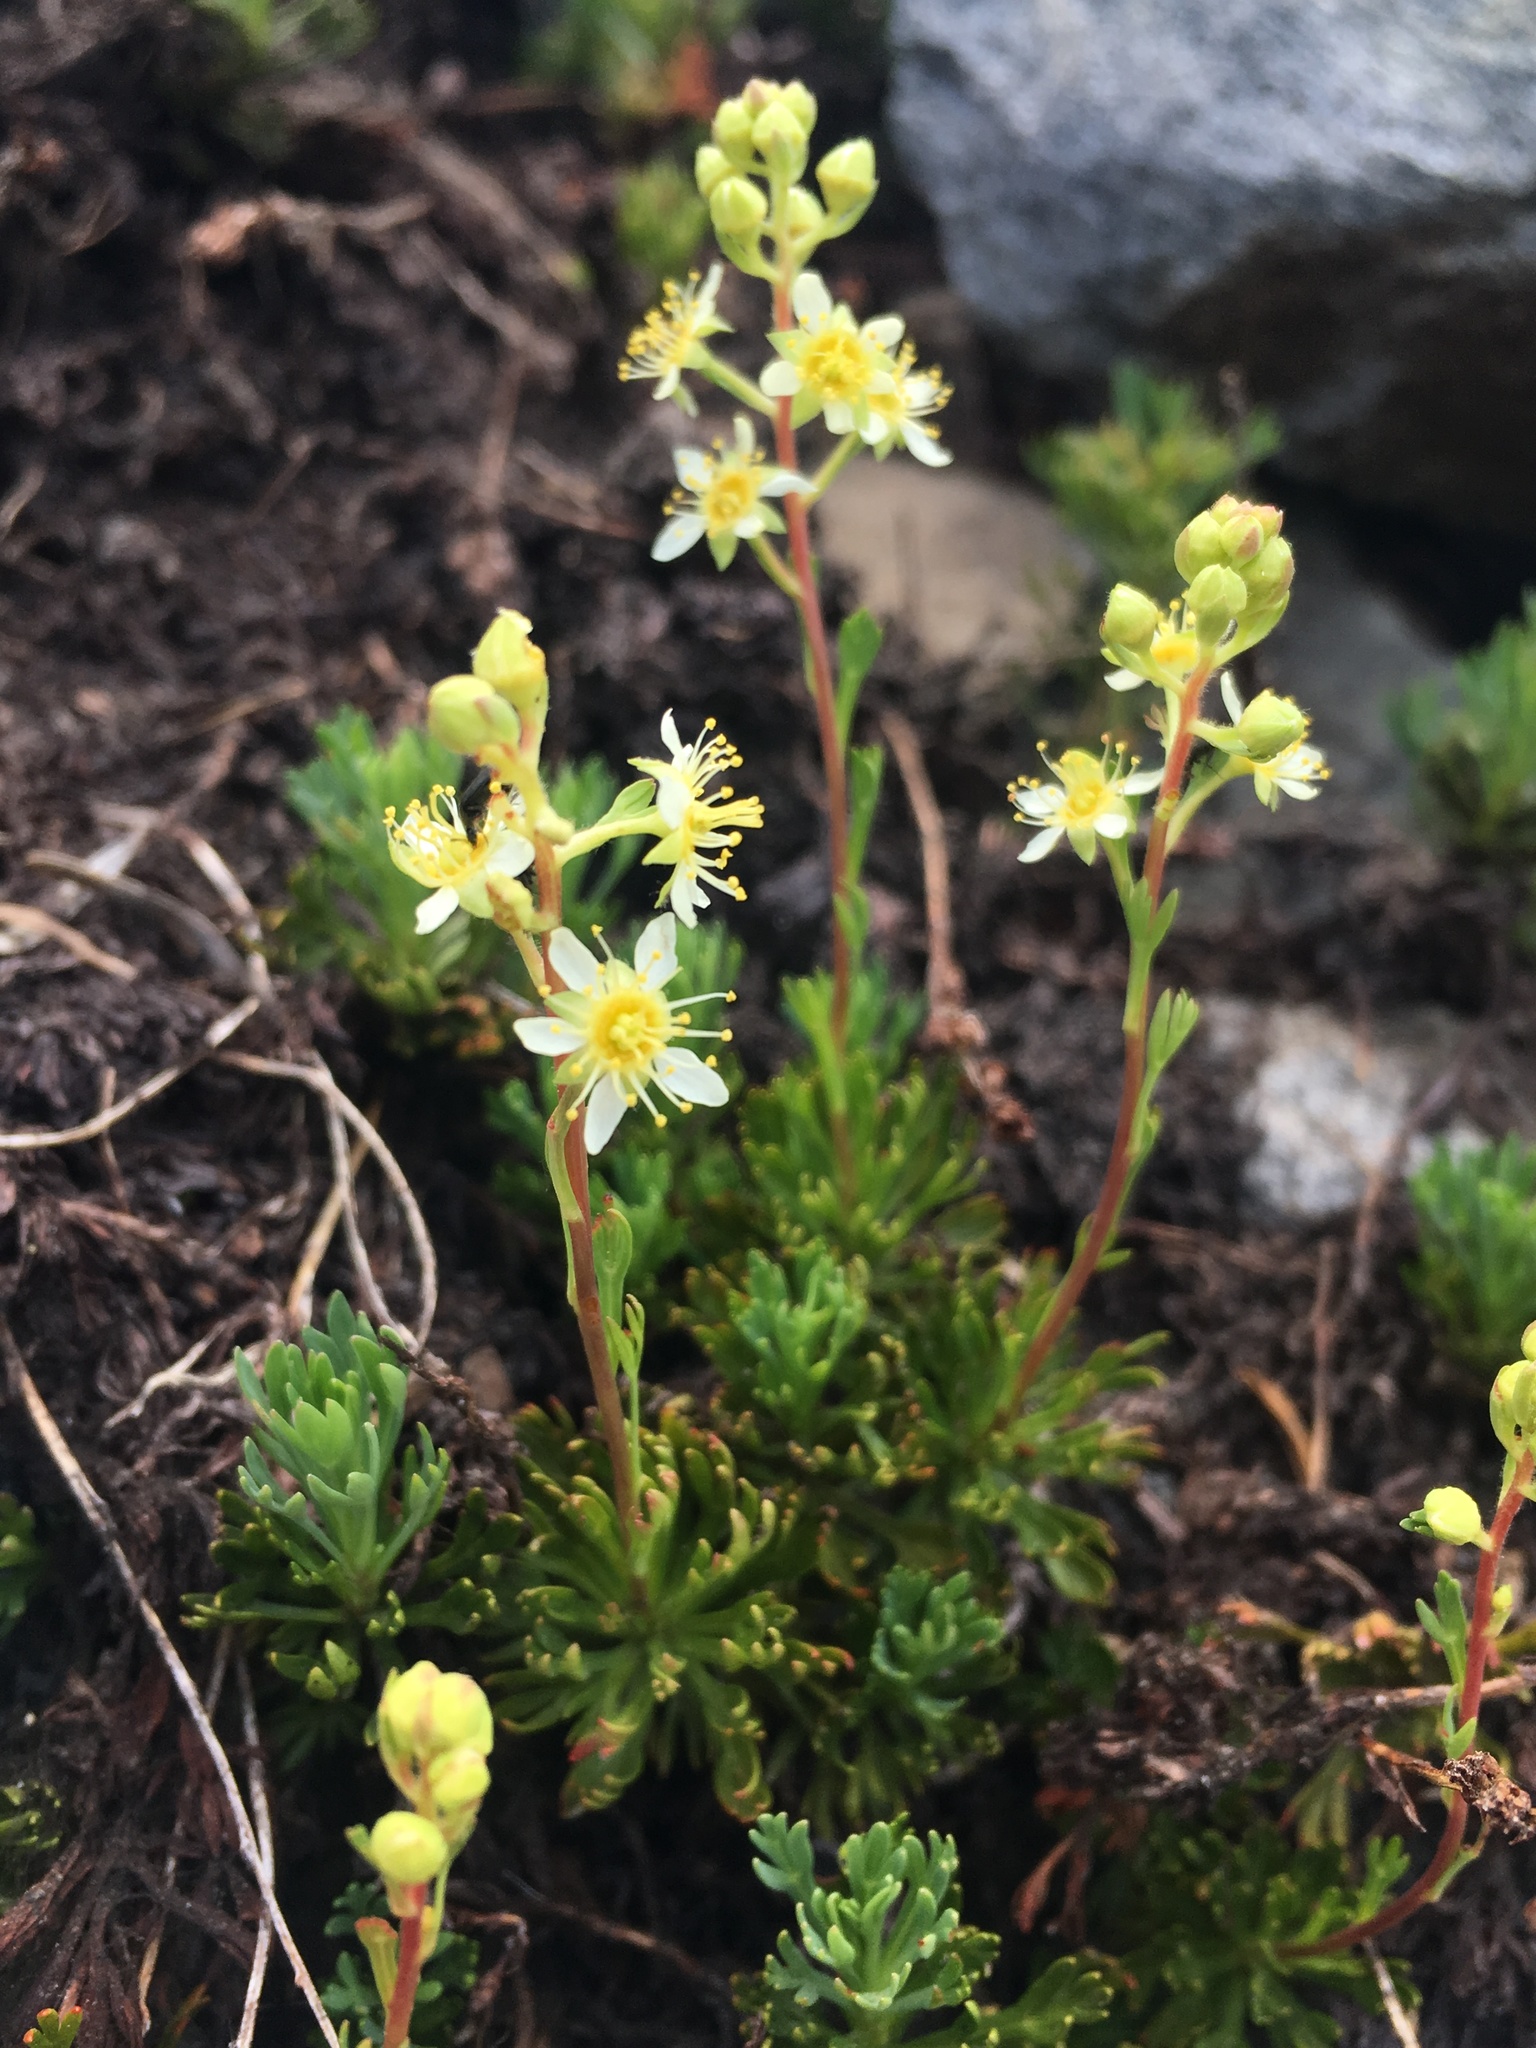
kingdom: Plantae
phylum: Tracheophyta
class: Magnoliopsida
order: Rosales
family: Rosaceae
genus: Luetkea
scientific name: Luetkea pectinata
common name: Partridgefoot
